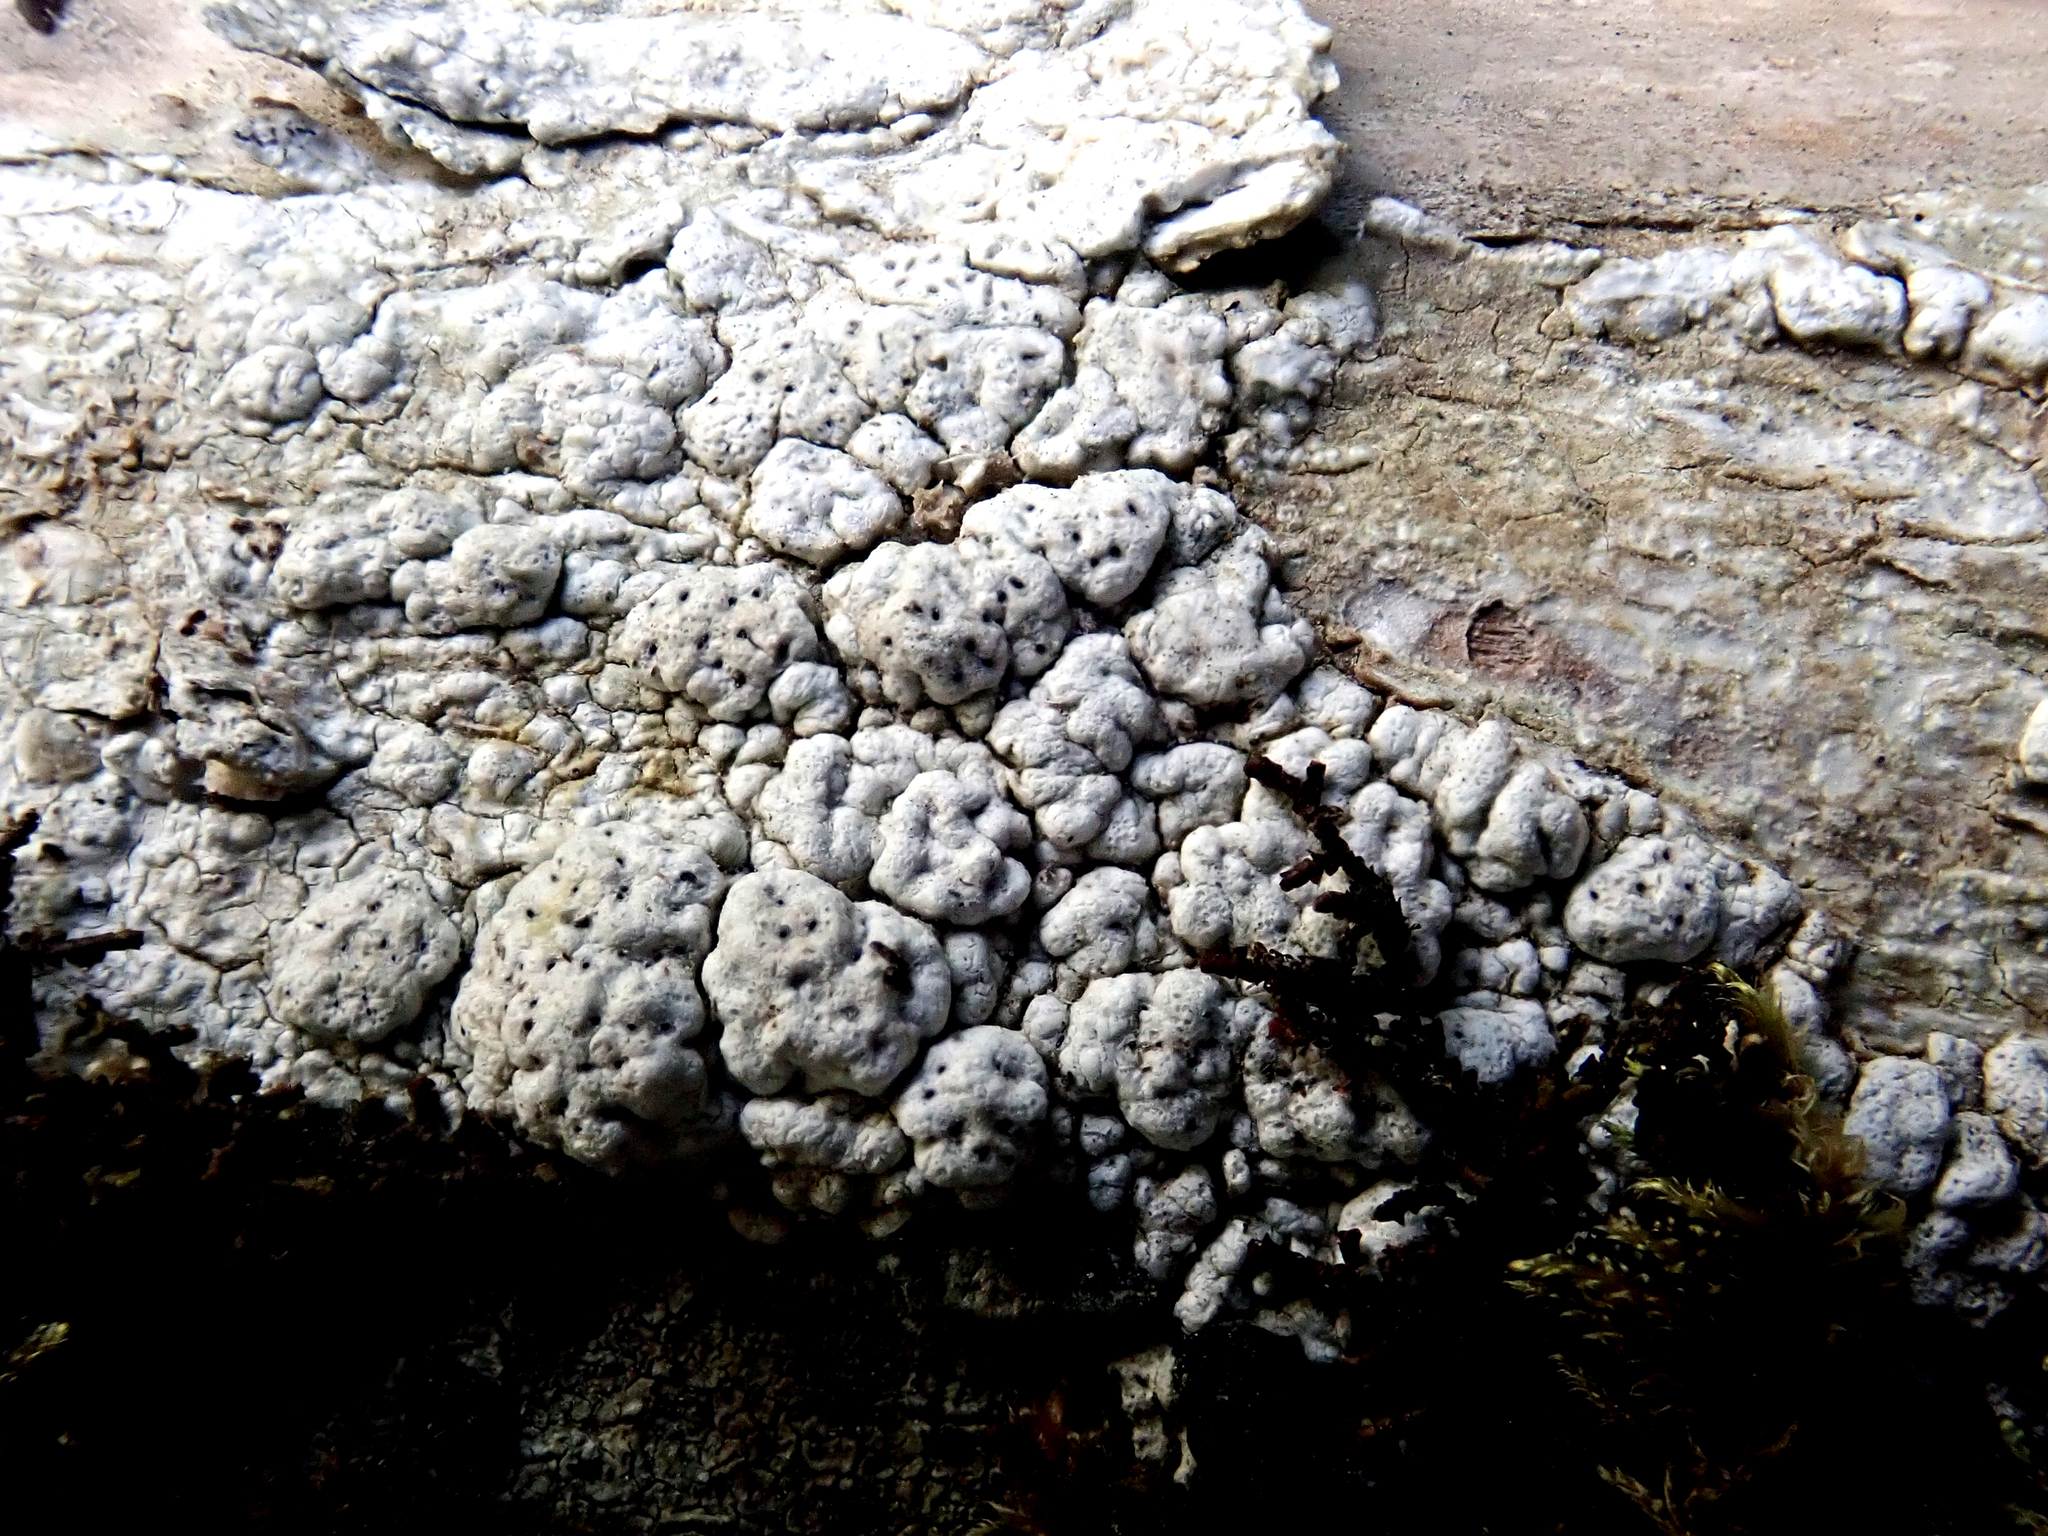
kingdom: Fungi
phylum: Ascomycota
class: Lecanoromycetes
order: Pertusariales
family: Pertusariaceae
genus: Pertusaria
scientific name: Pertusaria
